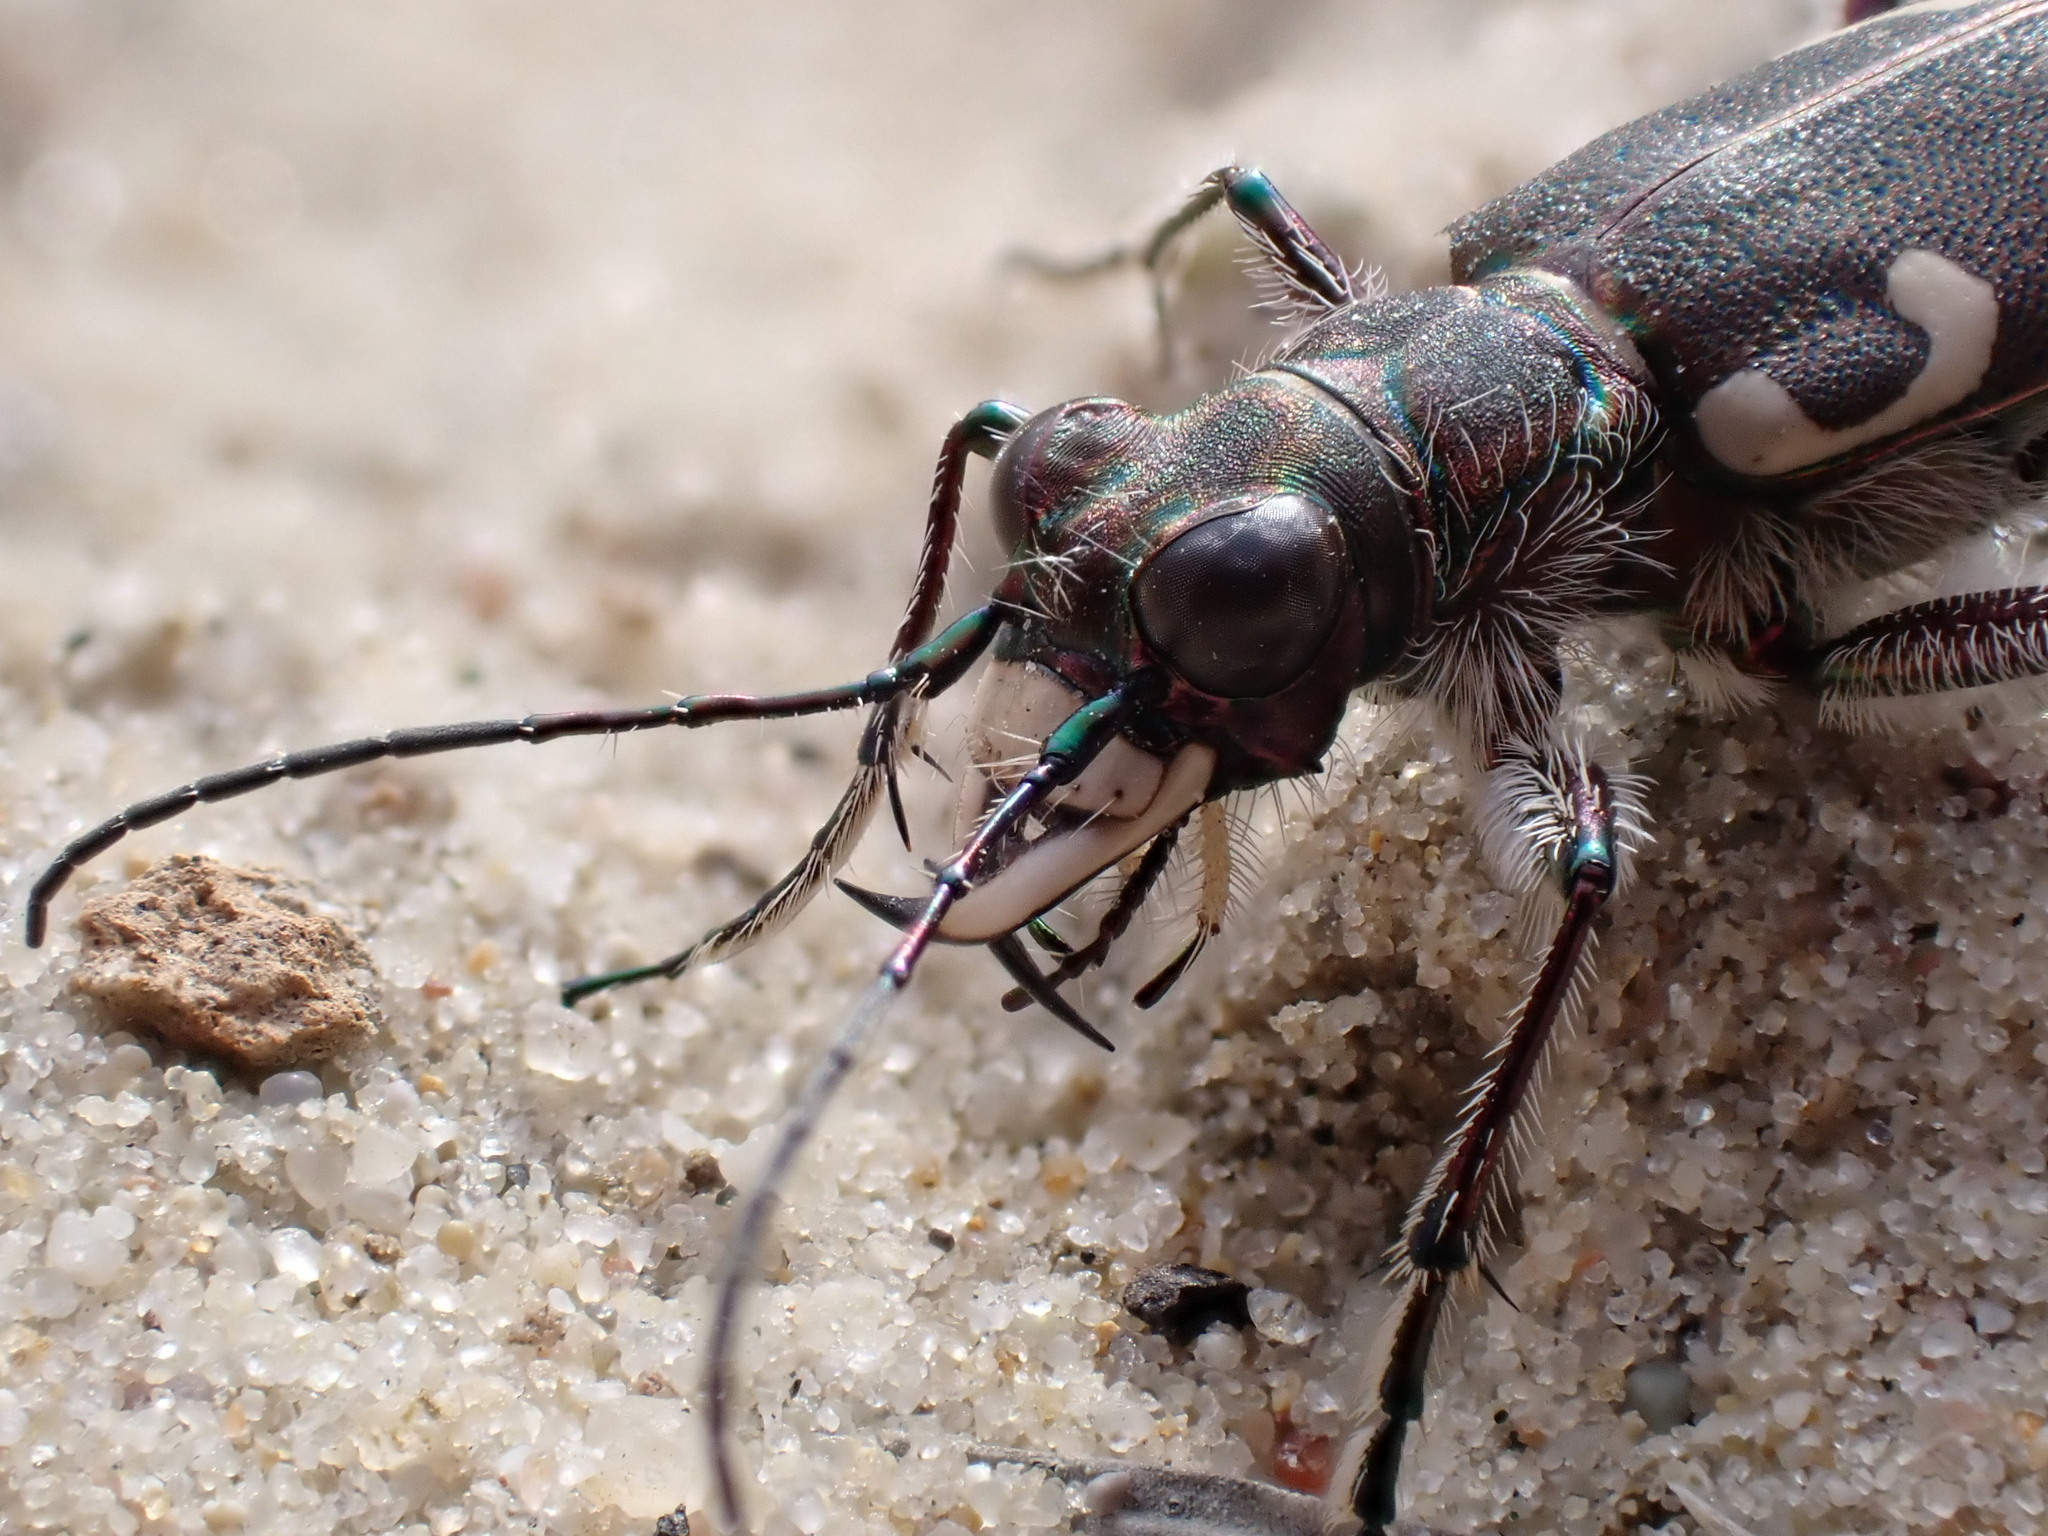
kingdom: Animalia
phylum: Arthropoda
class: Insecta
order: Coleoptera
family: Carabidae
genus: Cicindela
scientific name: Cicindela hybrida
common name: Northern dune tiger beetle
